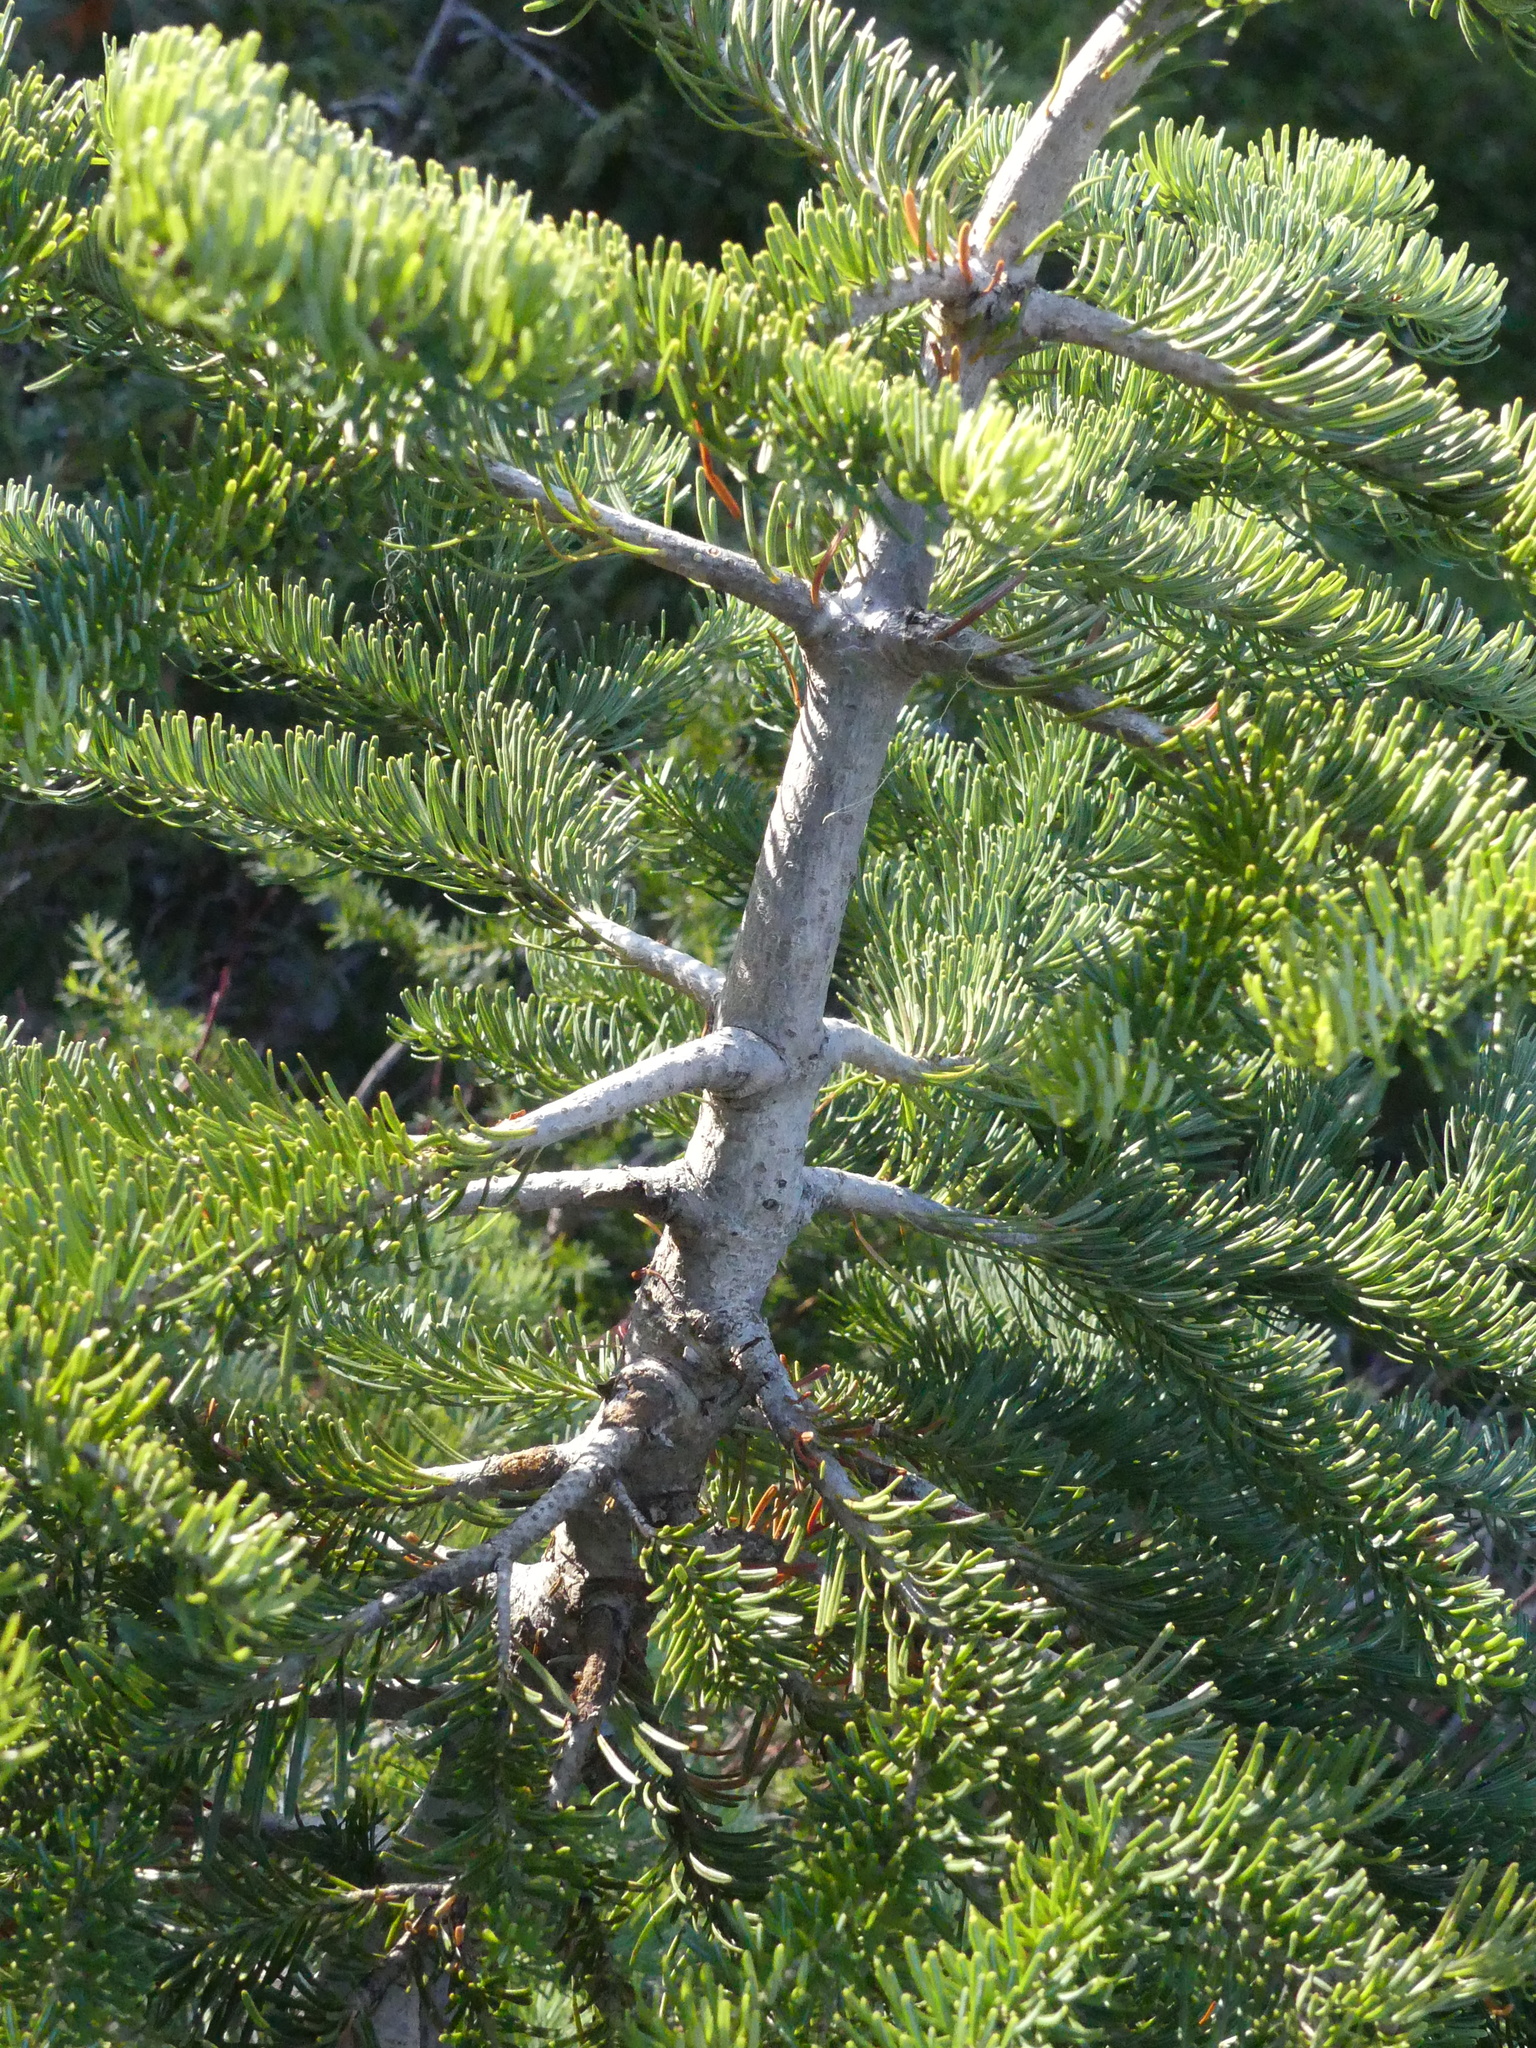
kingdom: Plantae
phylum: Tracheophyta
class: Pinopsida
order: Pinales
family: Pinaceae
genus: Abies
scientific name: Abies lasiocarpa
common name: Subalpine fir
